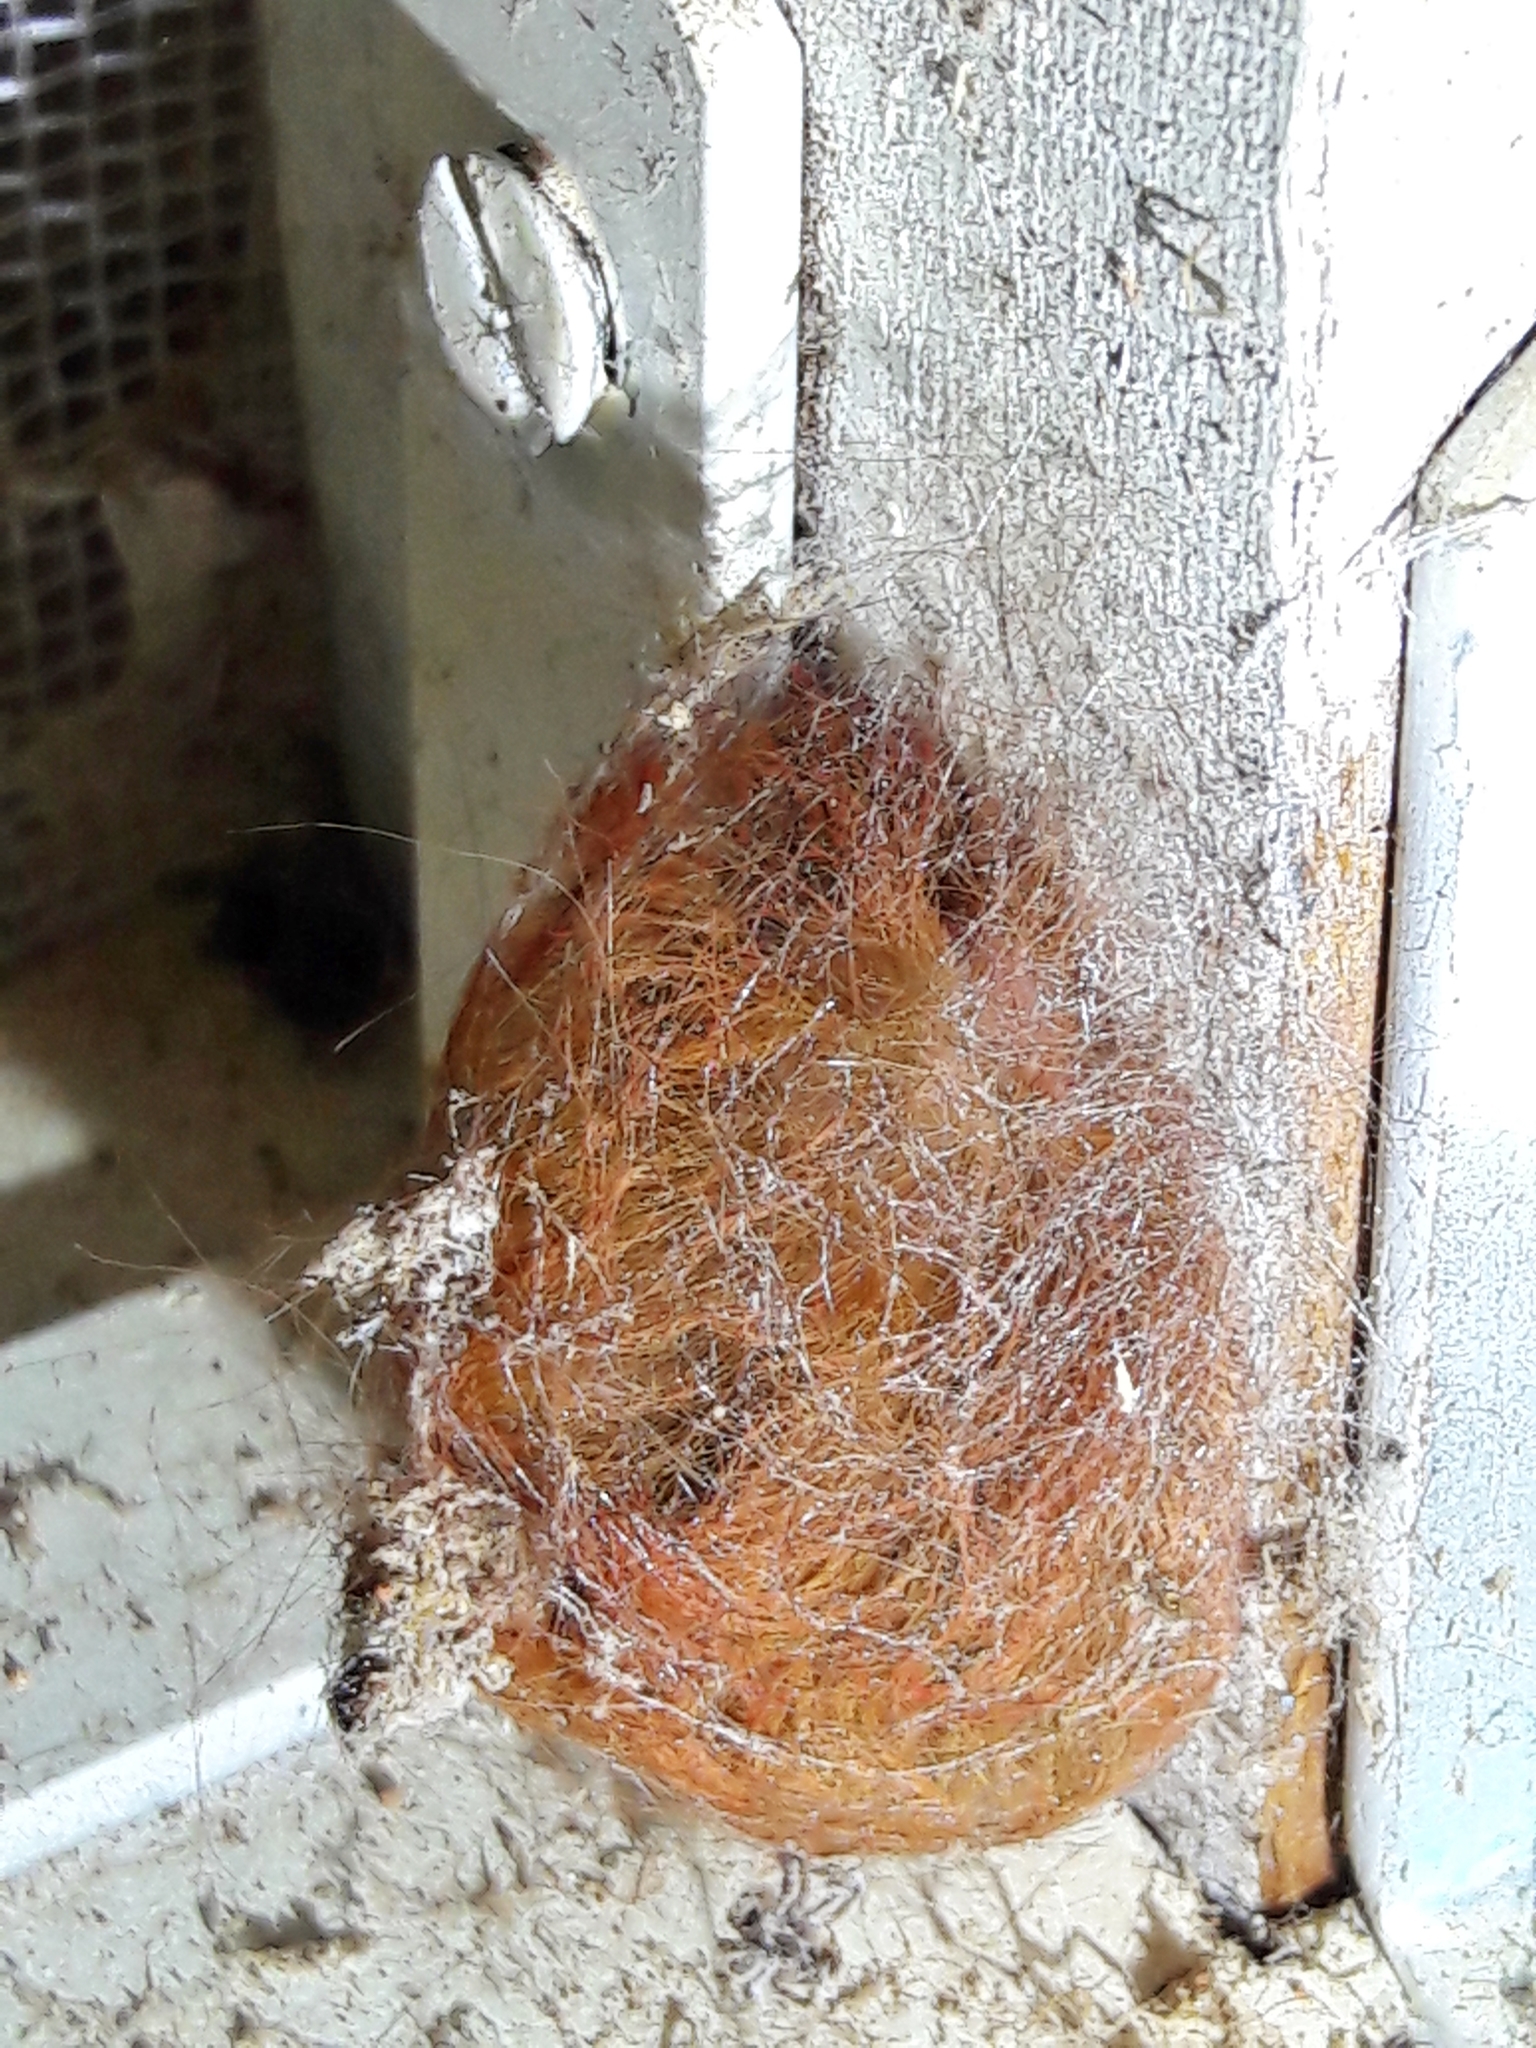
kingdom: Animalia
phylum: Arthropoda
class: Insecta
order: Lepidoptera
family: Megalopygidae
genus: Megalopyge
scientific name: Megalopyge albicollis
